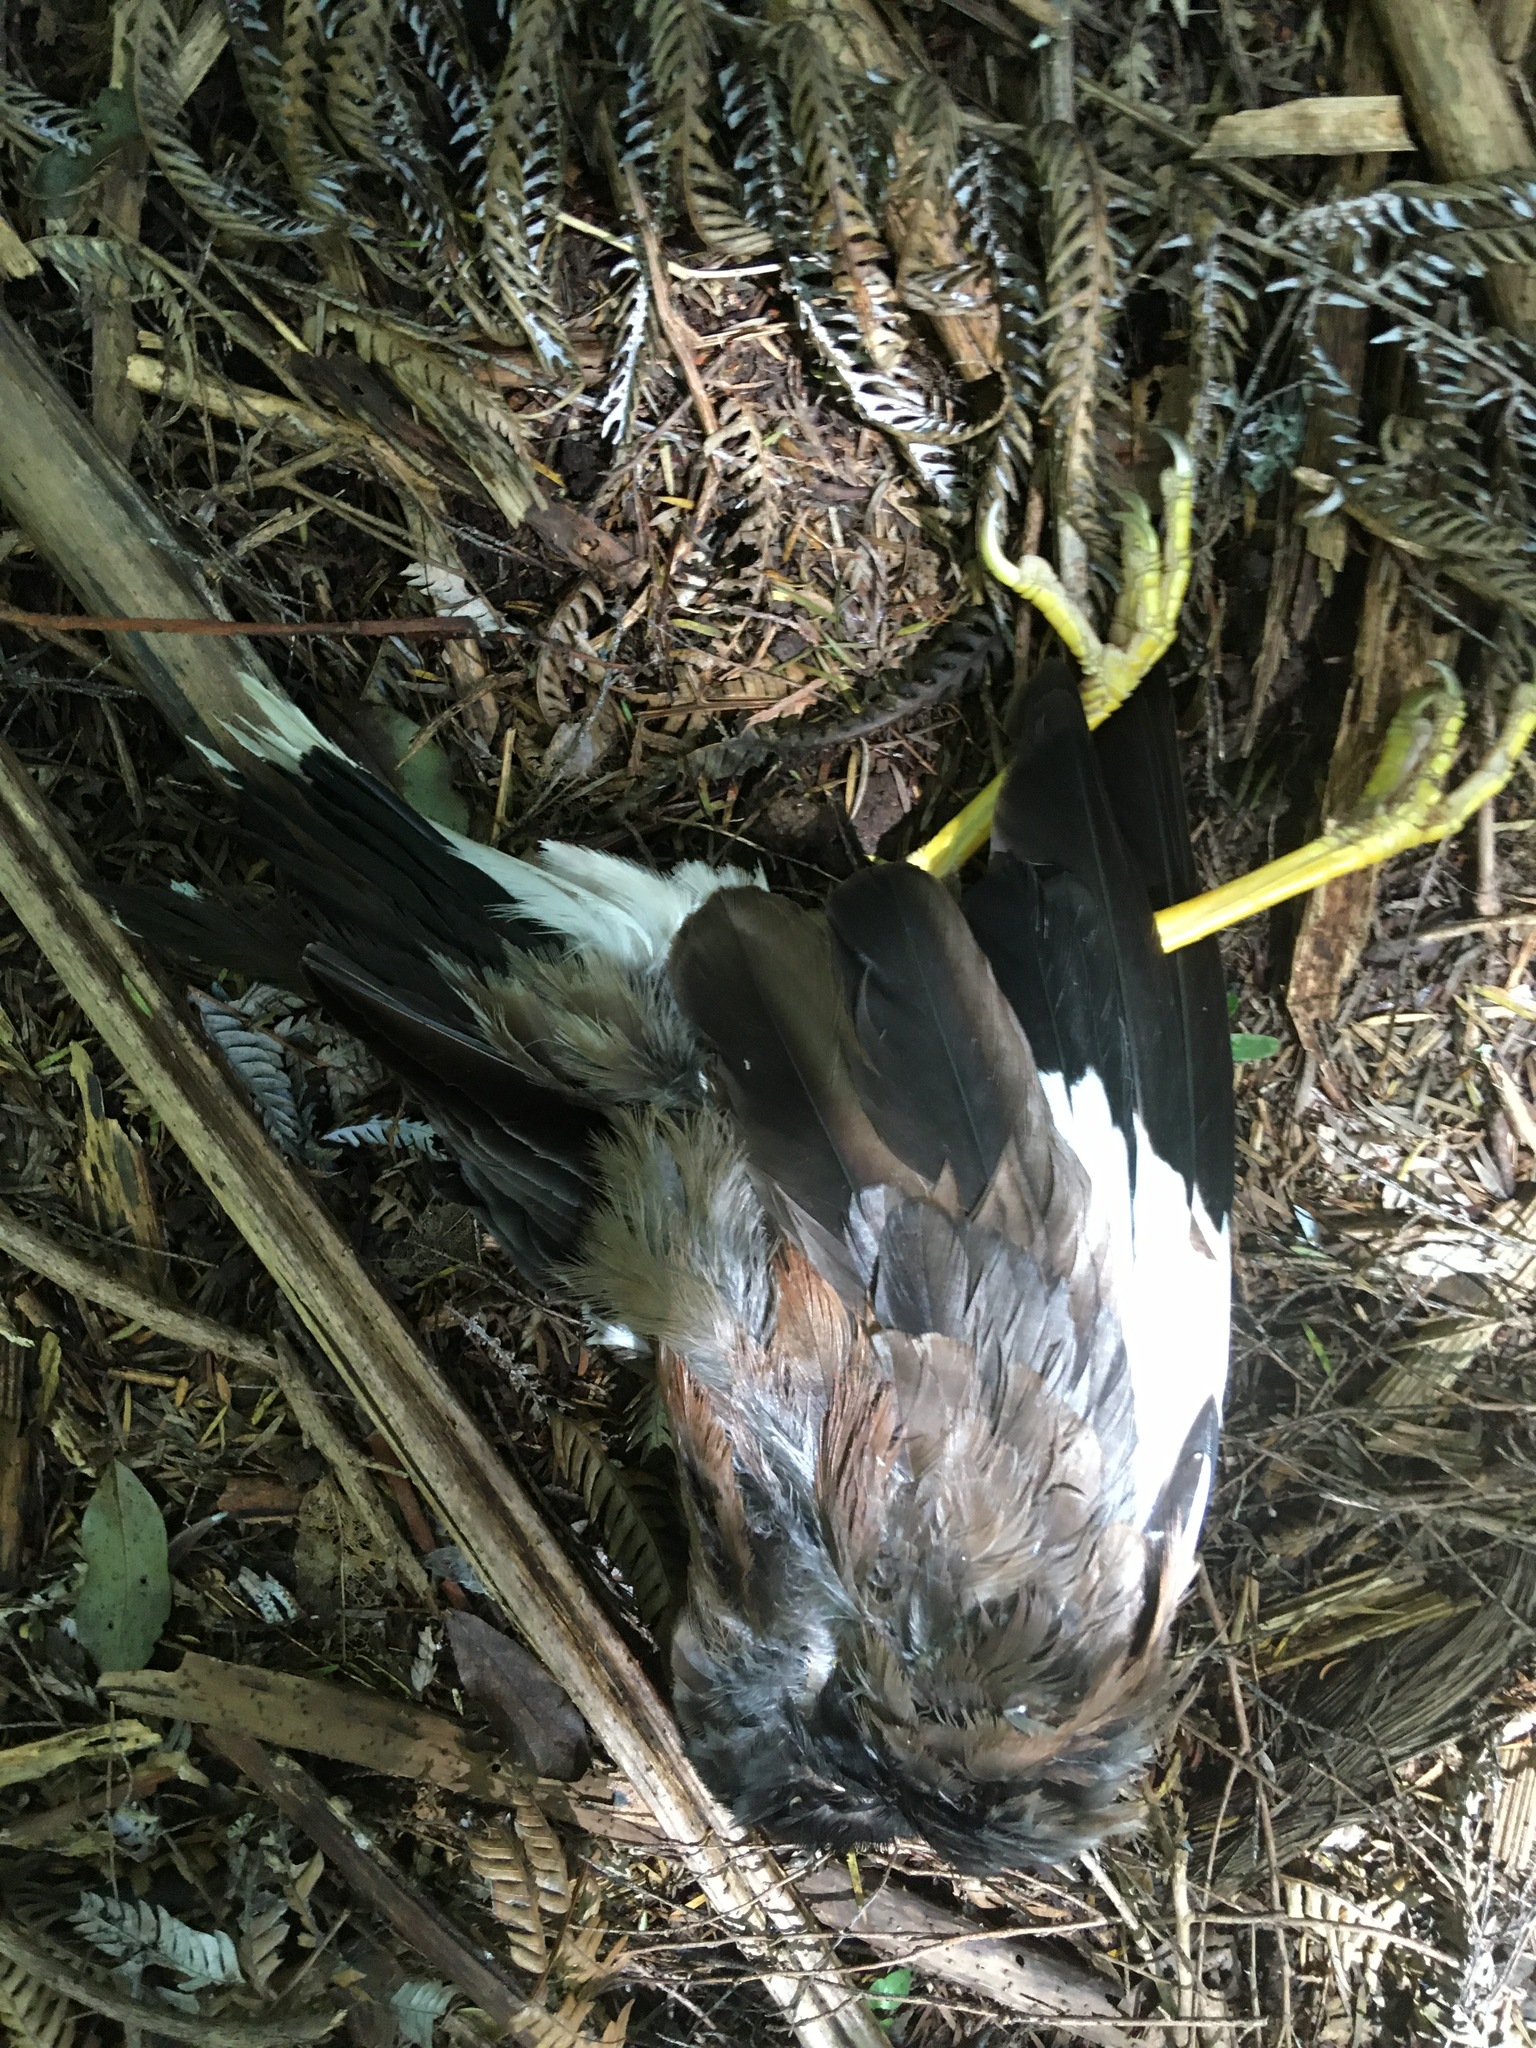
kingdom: Animalia
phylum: Chordata
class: Aves
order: Passeriformes
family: Sturnidae
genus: Acridotheres
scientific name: Acridotheres tristis
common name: Common myna
